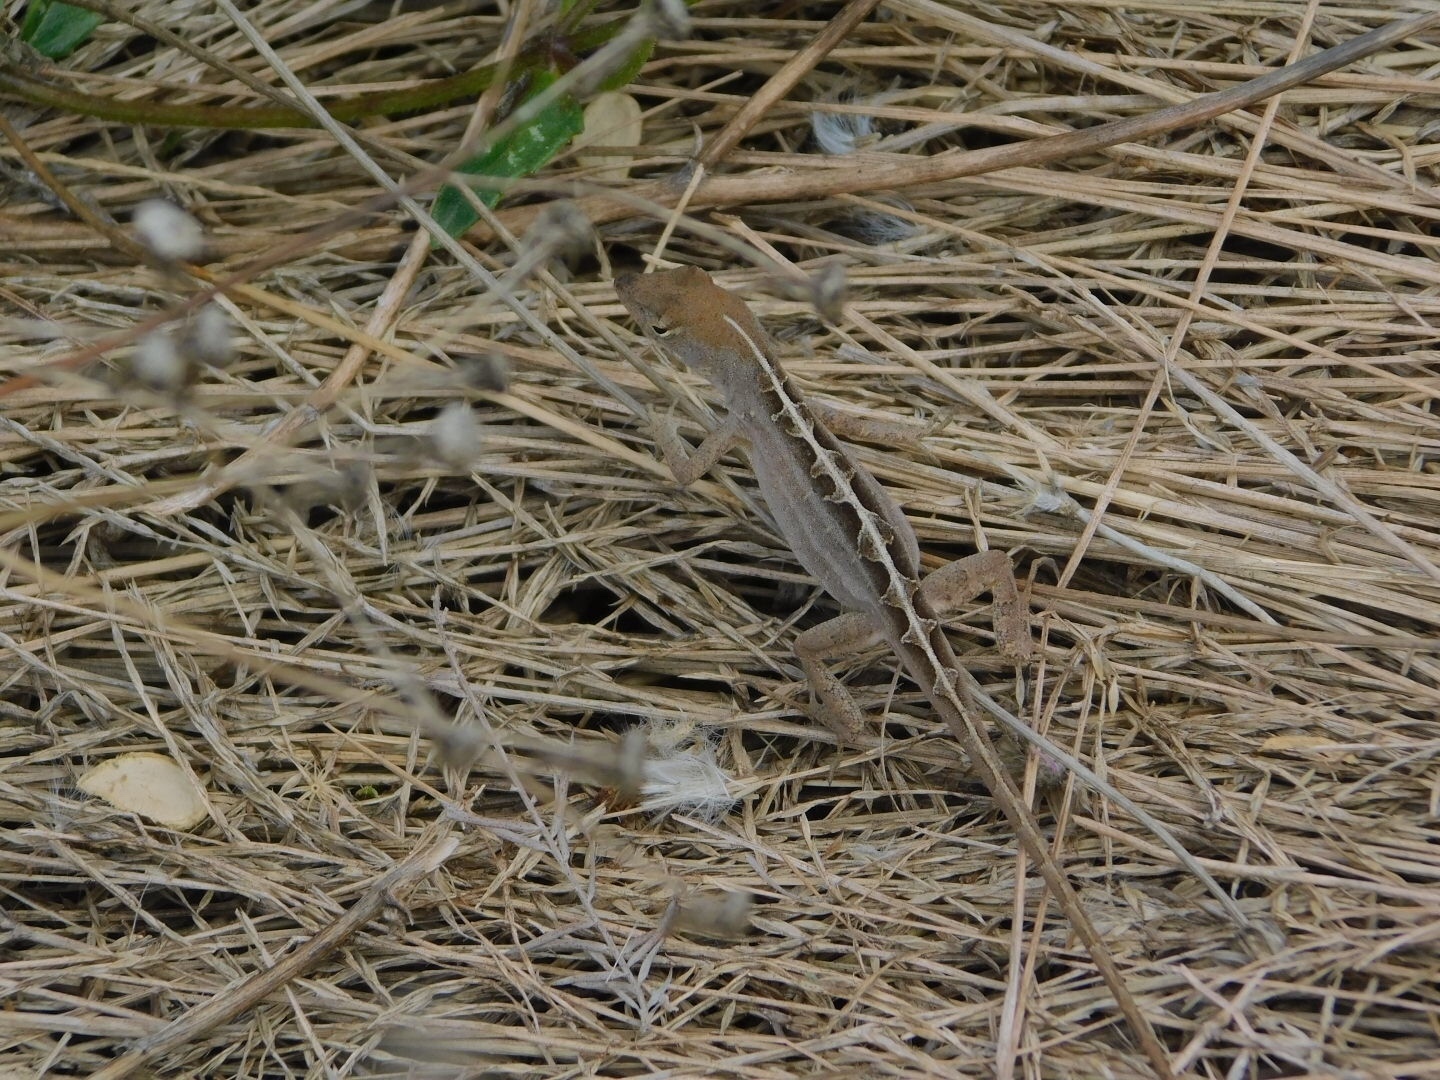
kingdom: Animalia
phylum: Chordata
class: Squamata
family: Dactyloidae
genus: Anolis
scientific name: Anolis sagrei
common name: Brown anole
